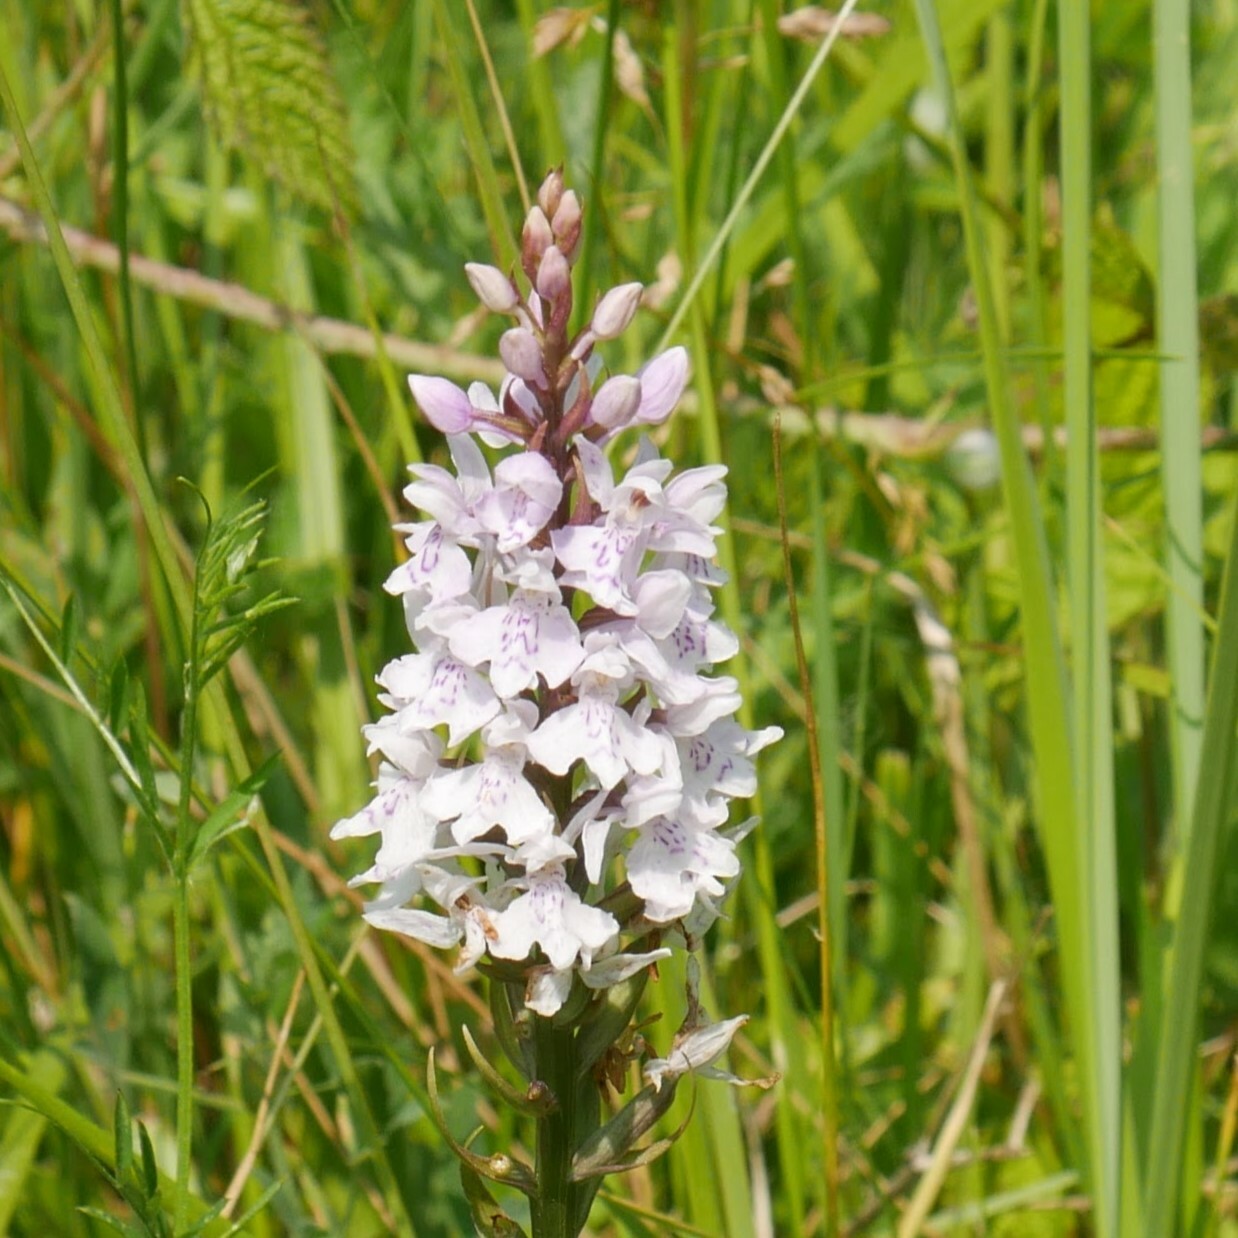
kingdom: Plantae
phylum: Tracheophyta
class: Liliopsida
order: Asparagales
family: Orchidaceae
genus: Dactylorhiza
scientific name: Dactylorhiza maculata
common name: Heath spotted-orchid
